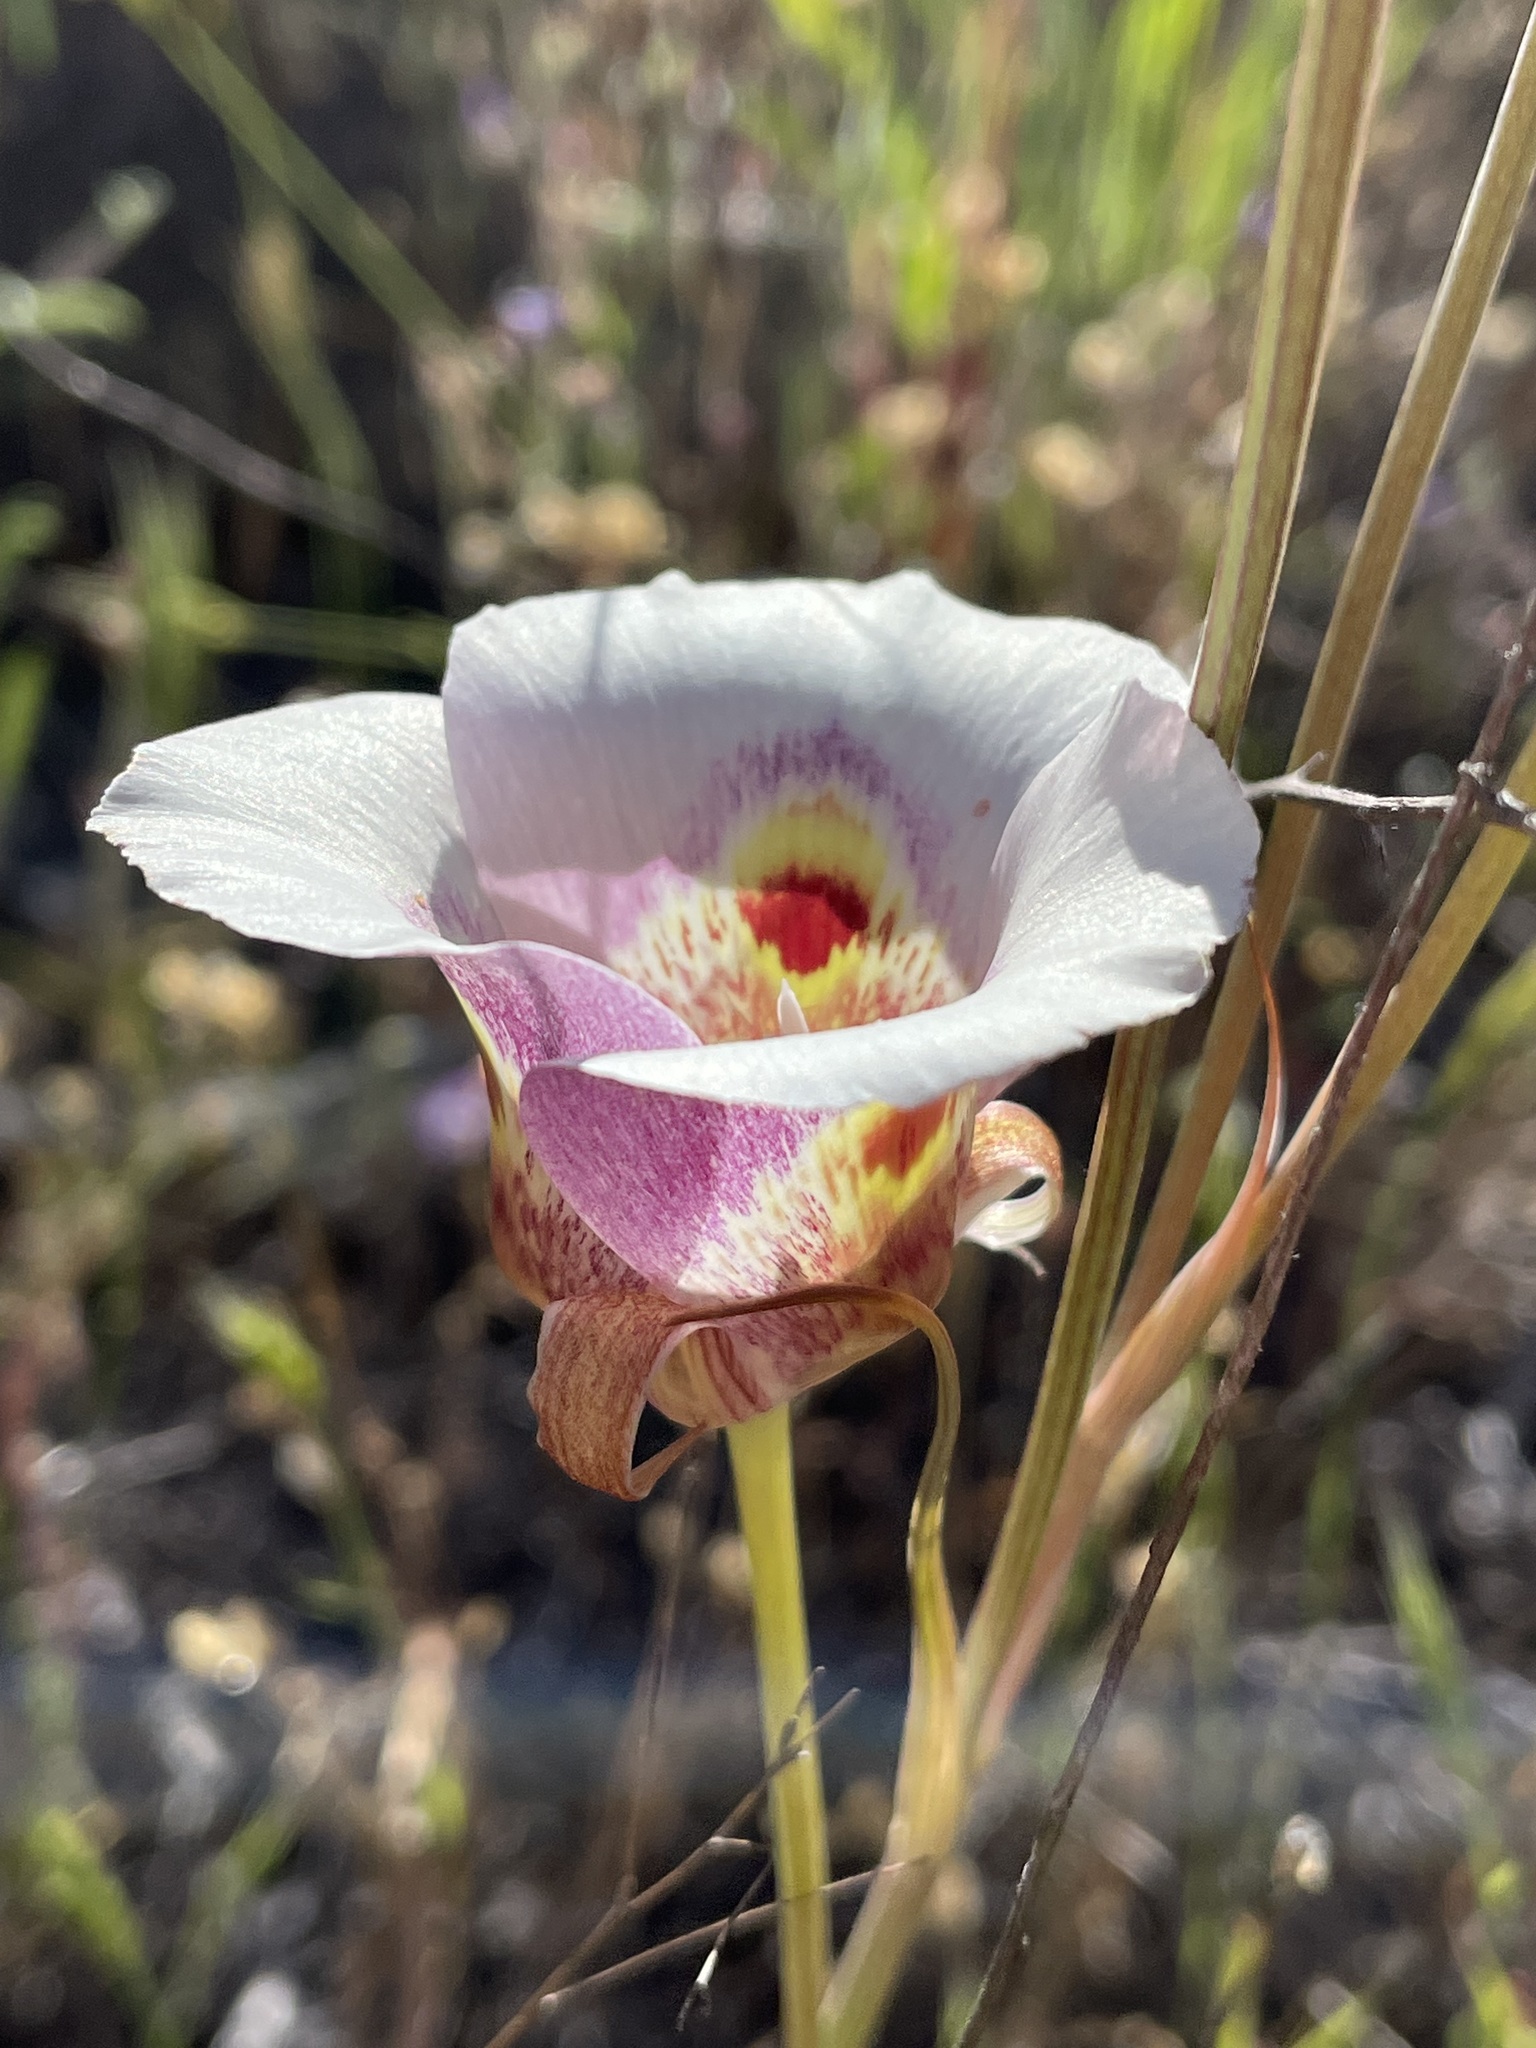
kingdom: Plantae
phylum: Tracheophyta
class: Liliopsida
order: Liliales
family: Liliaceae
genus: Calochortus
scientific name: Calochortus argillosus
